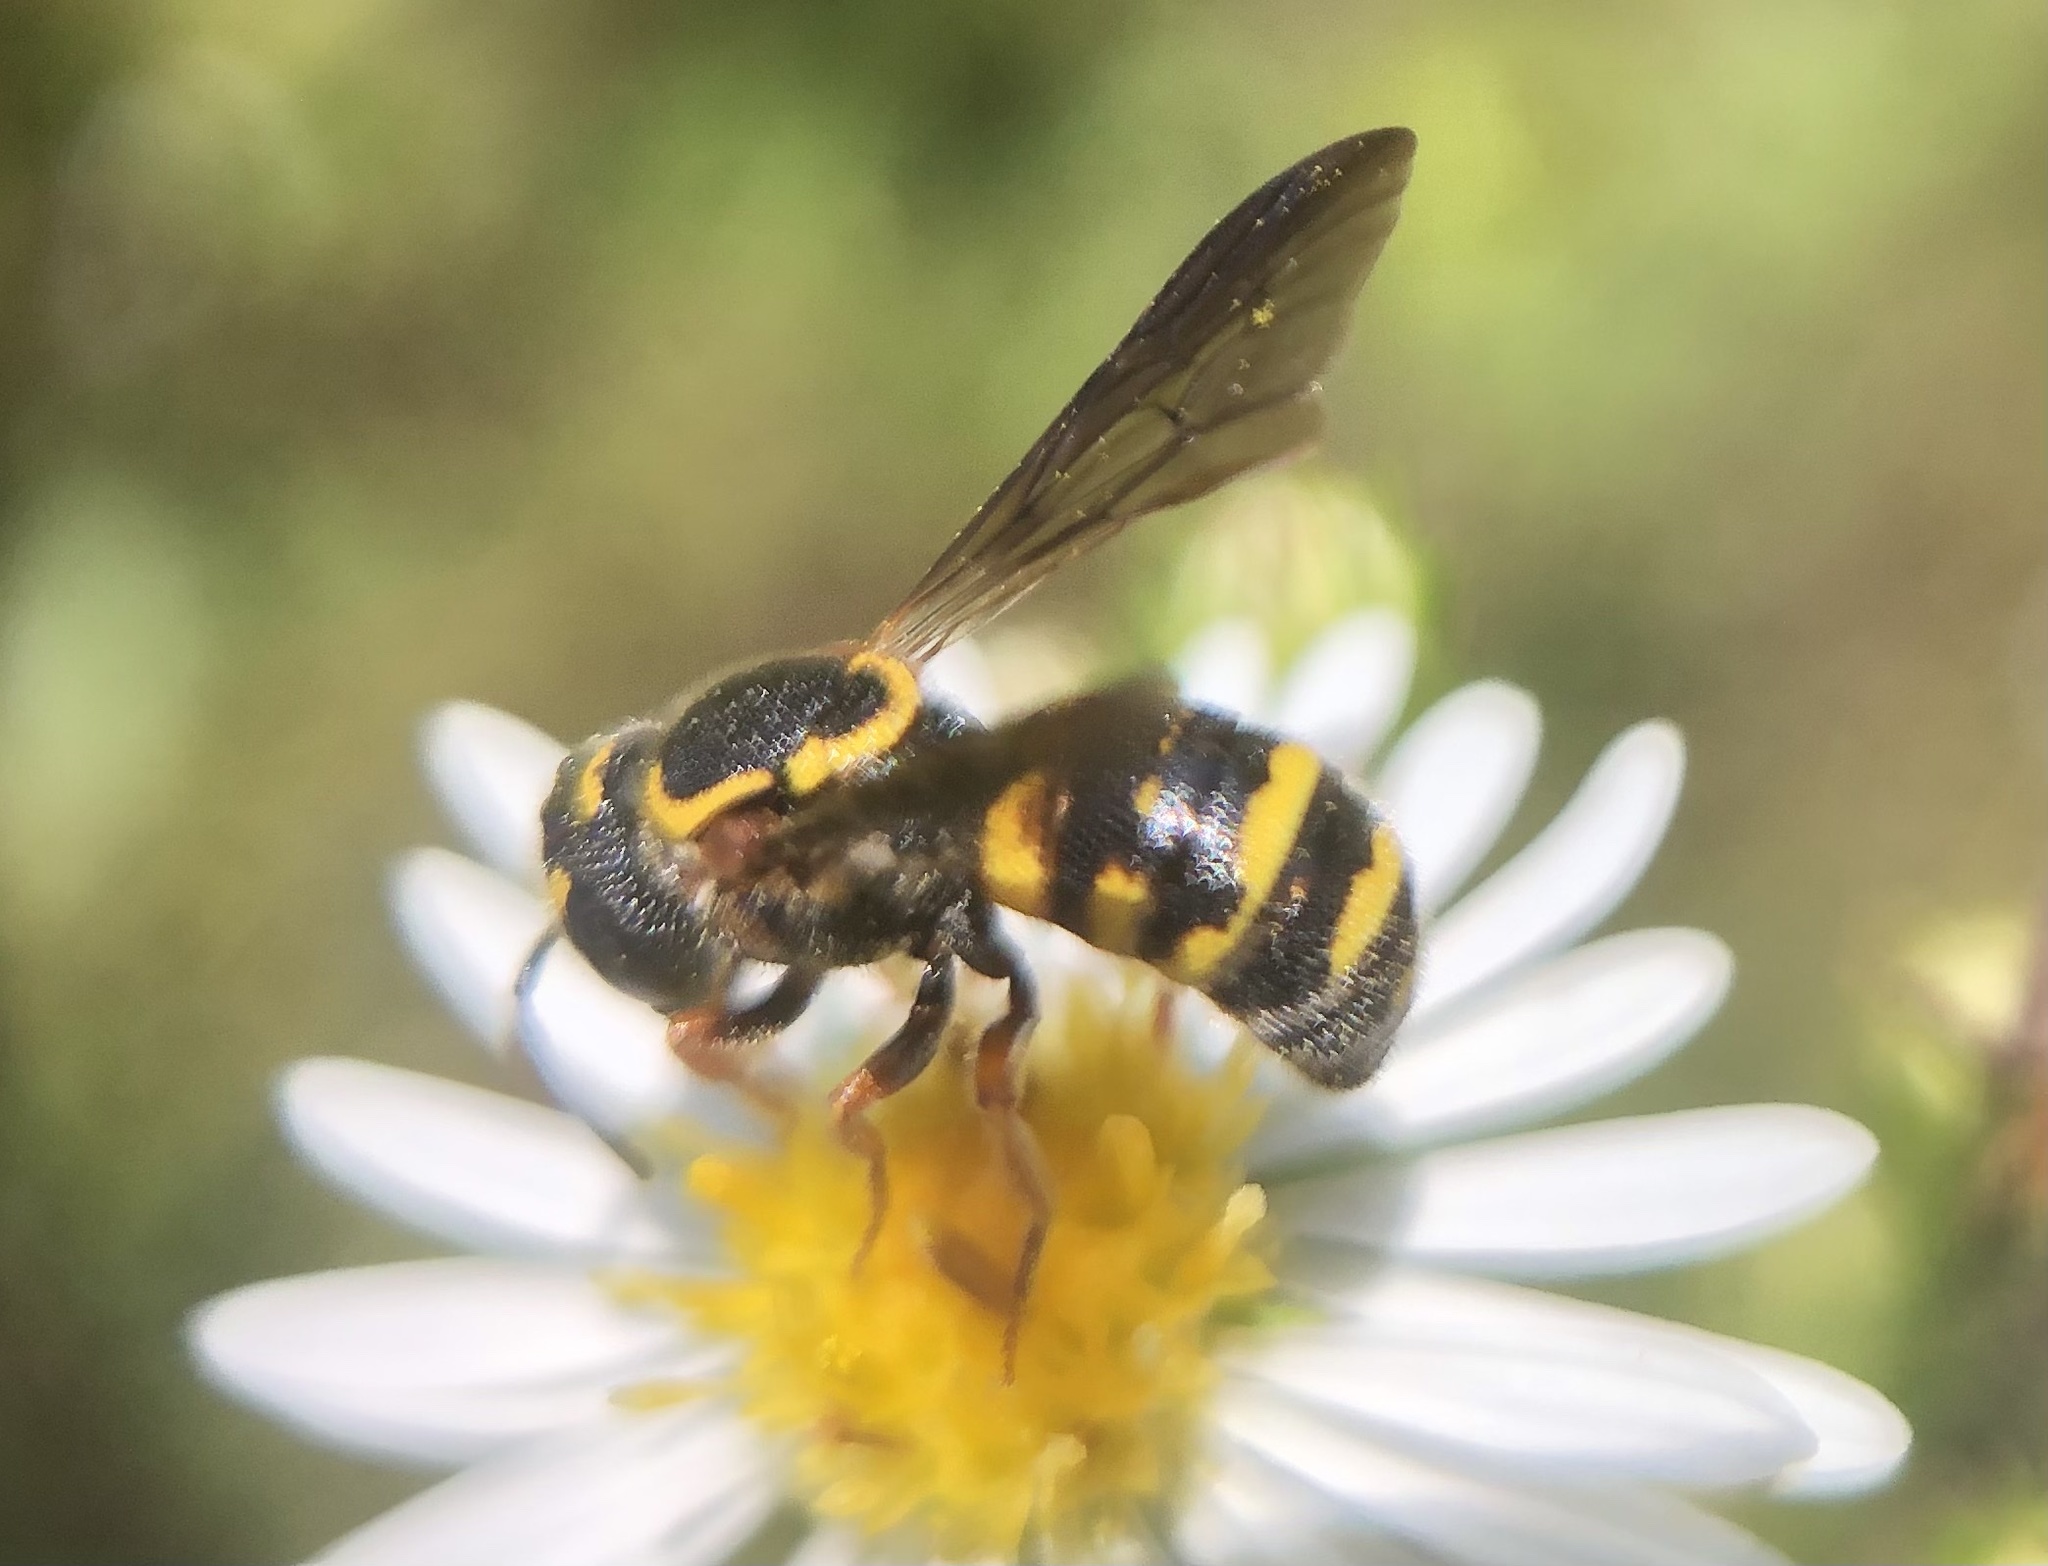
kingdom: Animalia
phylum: Arthropoda
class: Insecta
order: Hymenoptera
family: Megachilidae
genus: Stelis
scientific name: Stelis louisae
